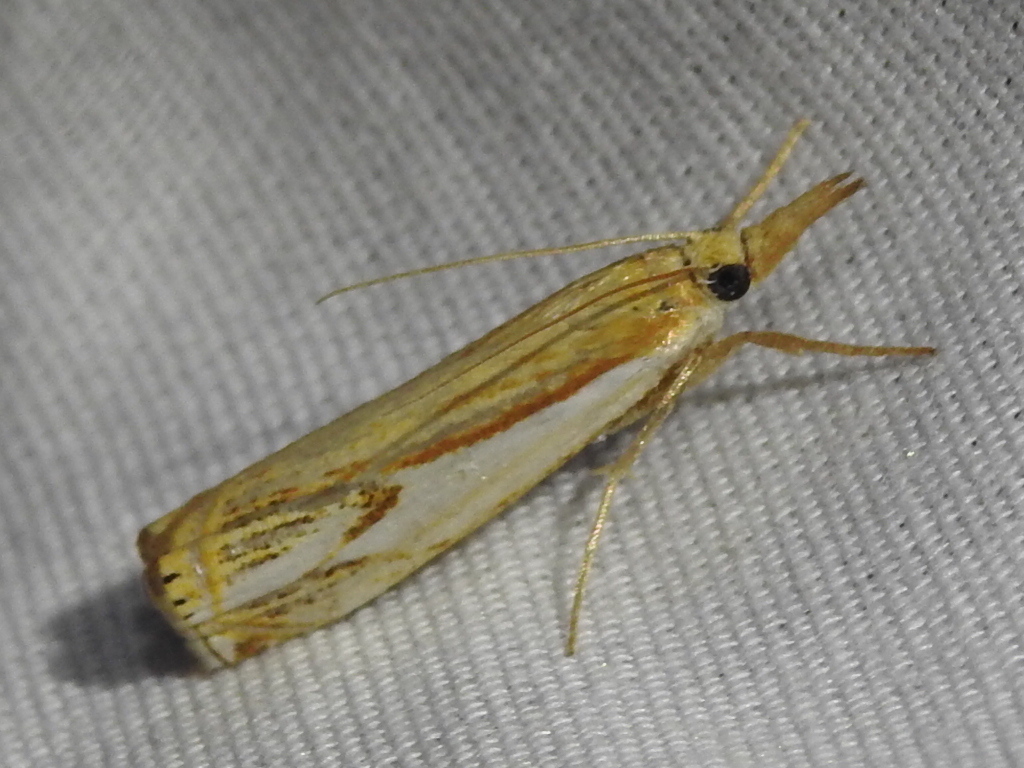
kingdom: Animalia
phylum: Arthropoda
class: Insecta
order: Lepidoptera
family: Crambidae
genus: Crambus
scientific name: Crambus agitatellus
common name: Double-banded grass-veneer
